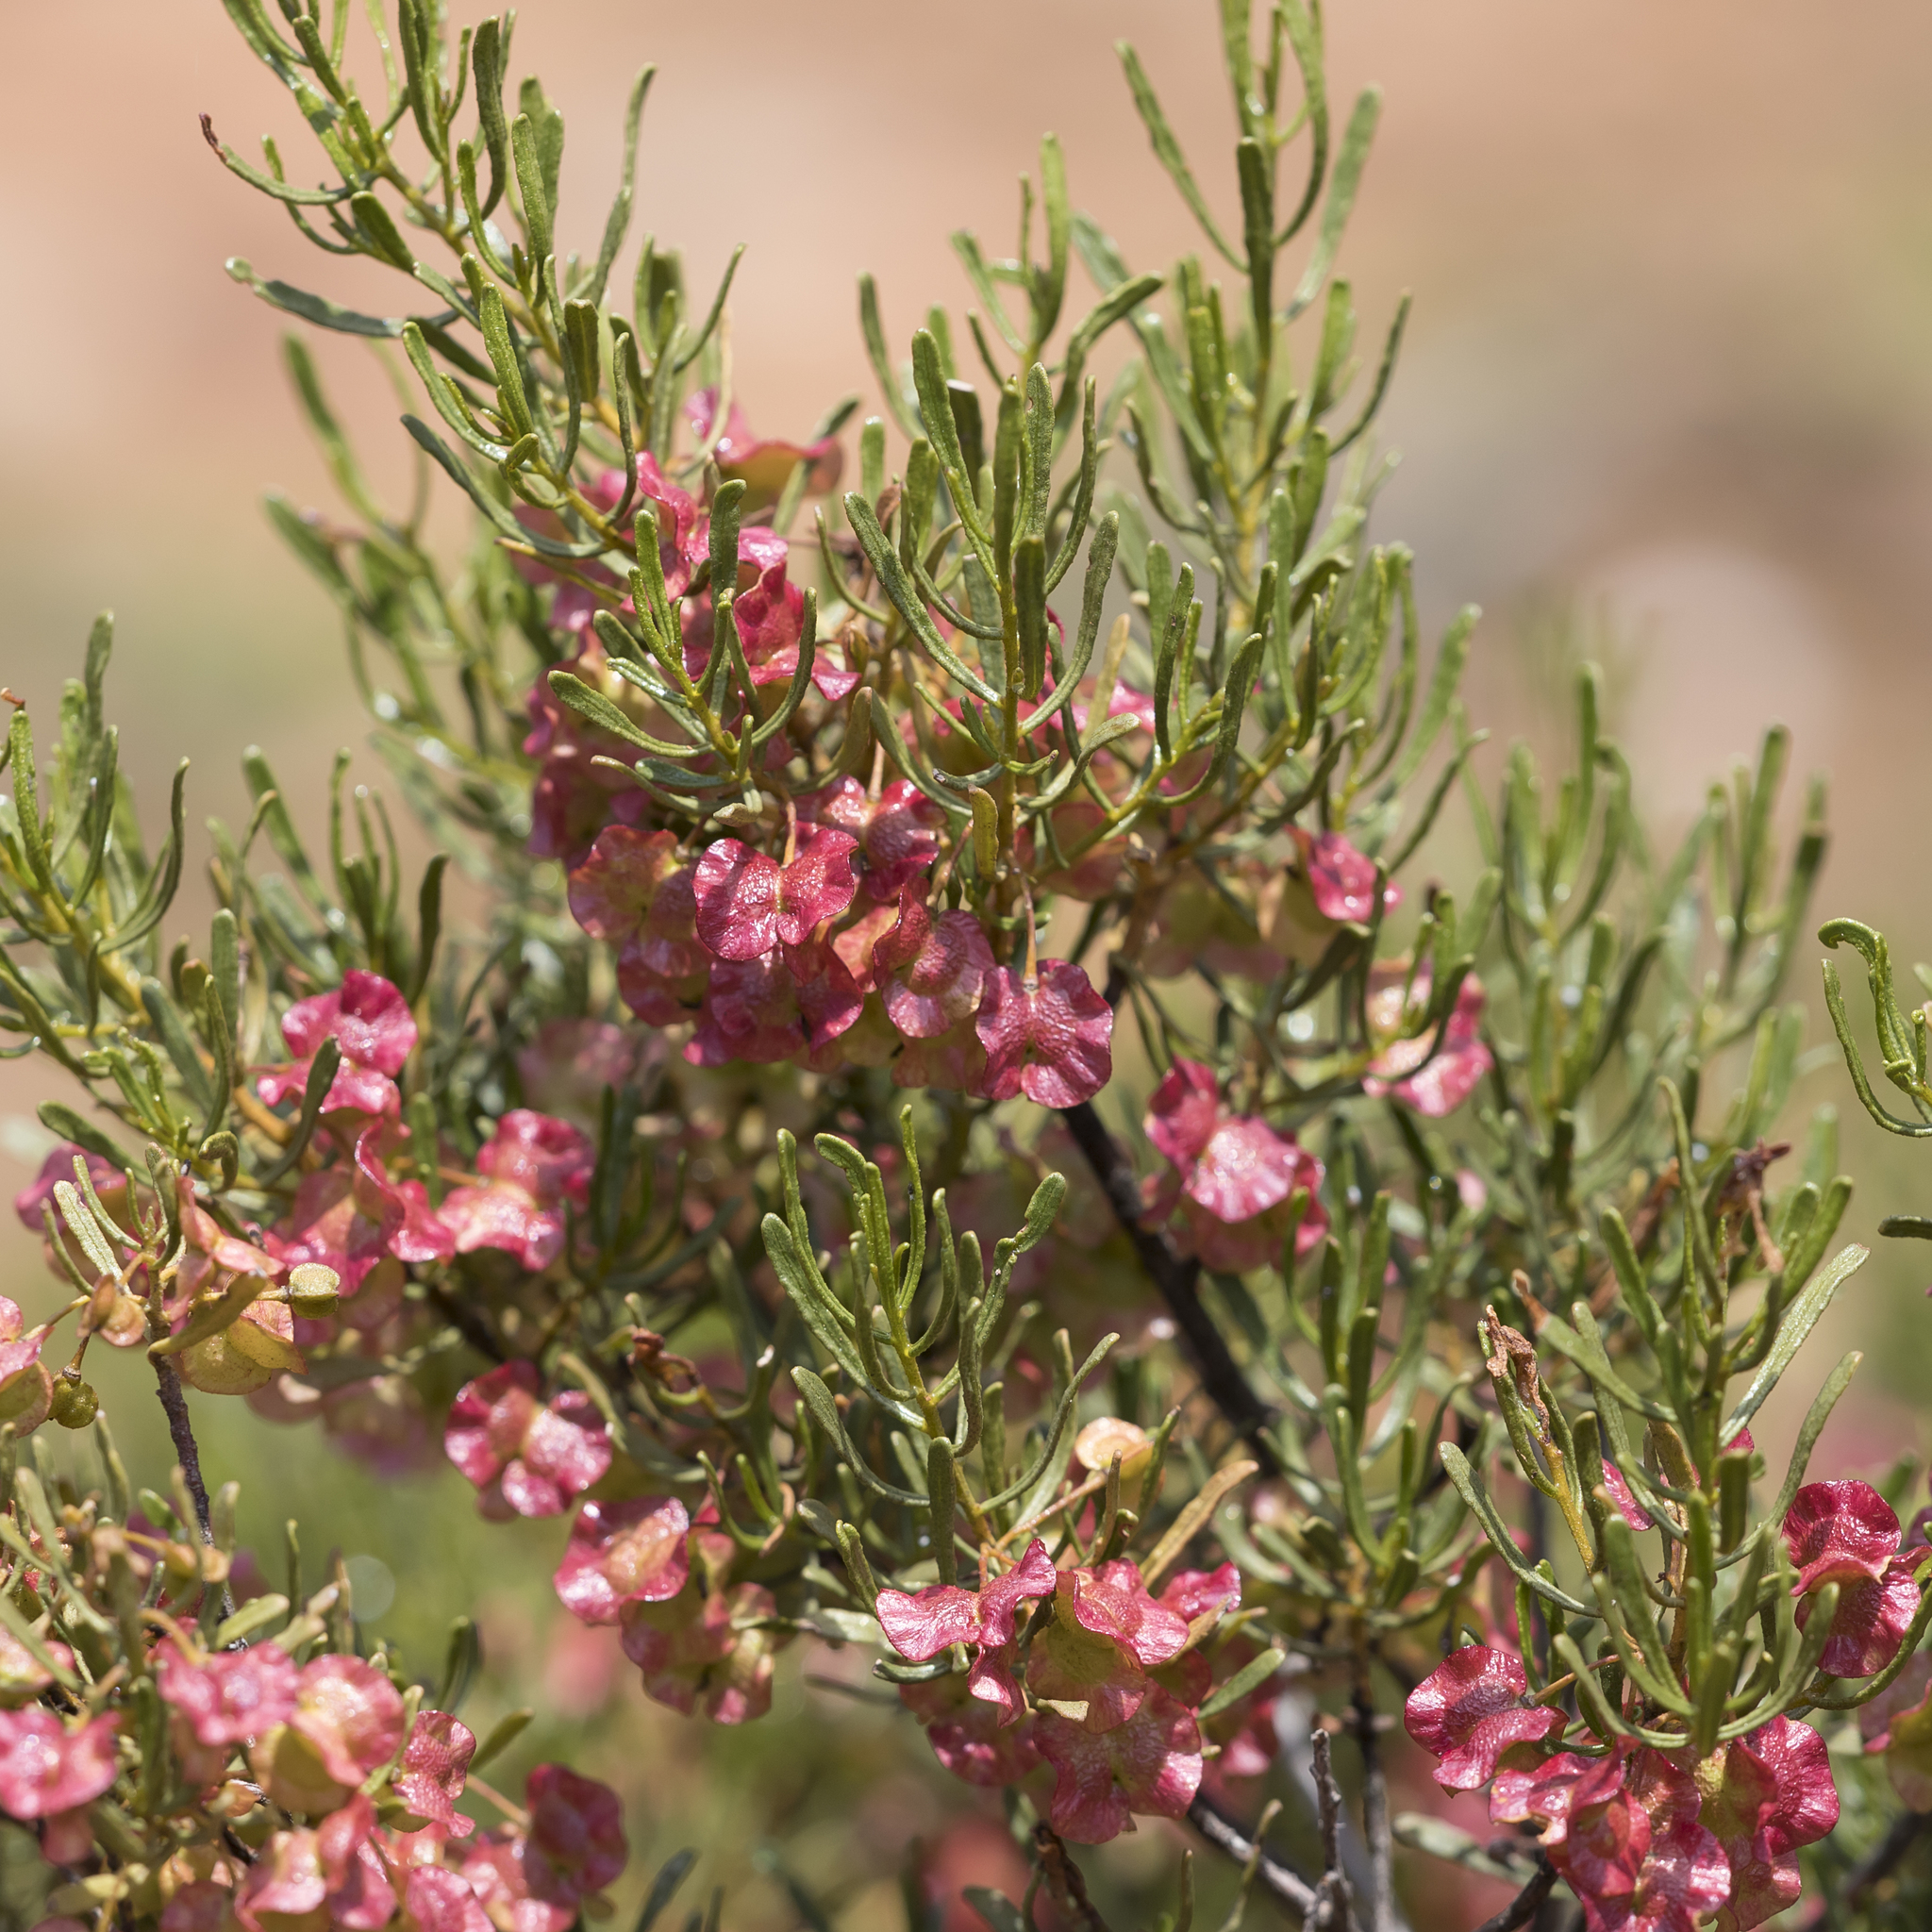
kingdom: Plantae
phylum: Tracheophyta
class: Magnoliopsida
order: Sapindales
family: Sapindaceae
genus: Dodonaea
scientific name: Dodonaea lobulata
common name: Lobe-leaf hopbush
